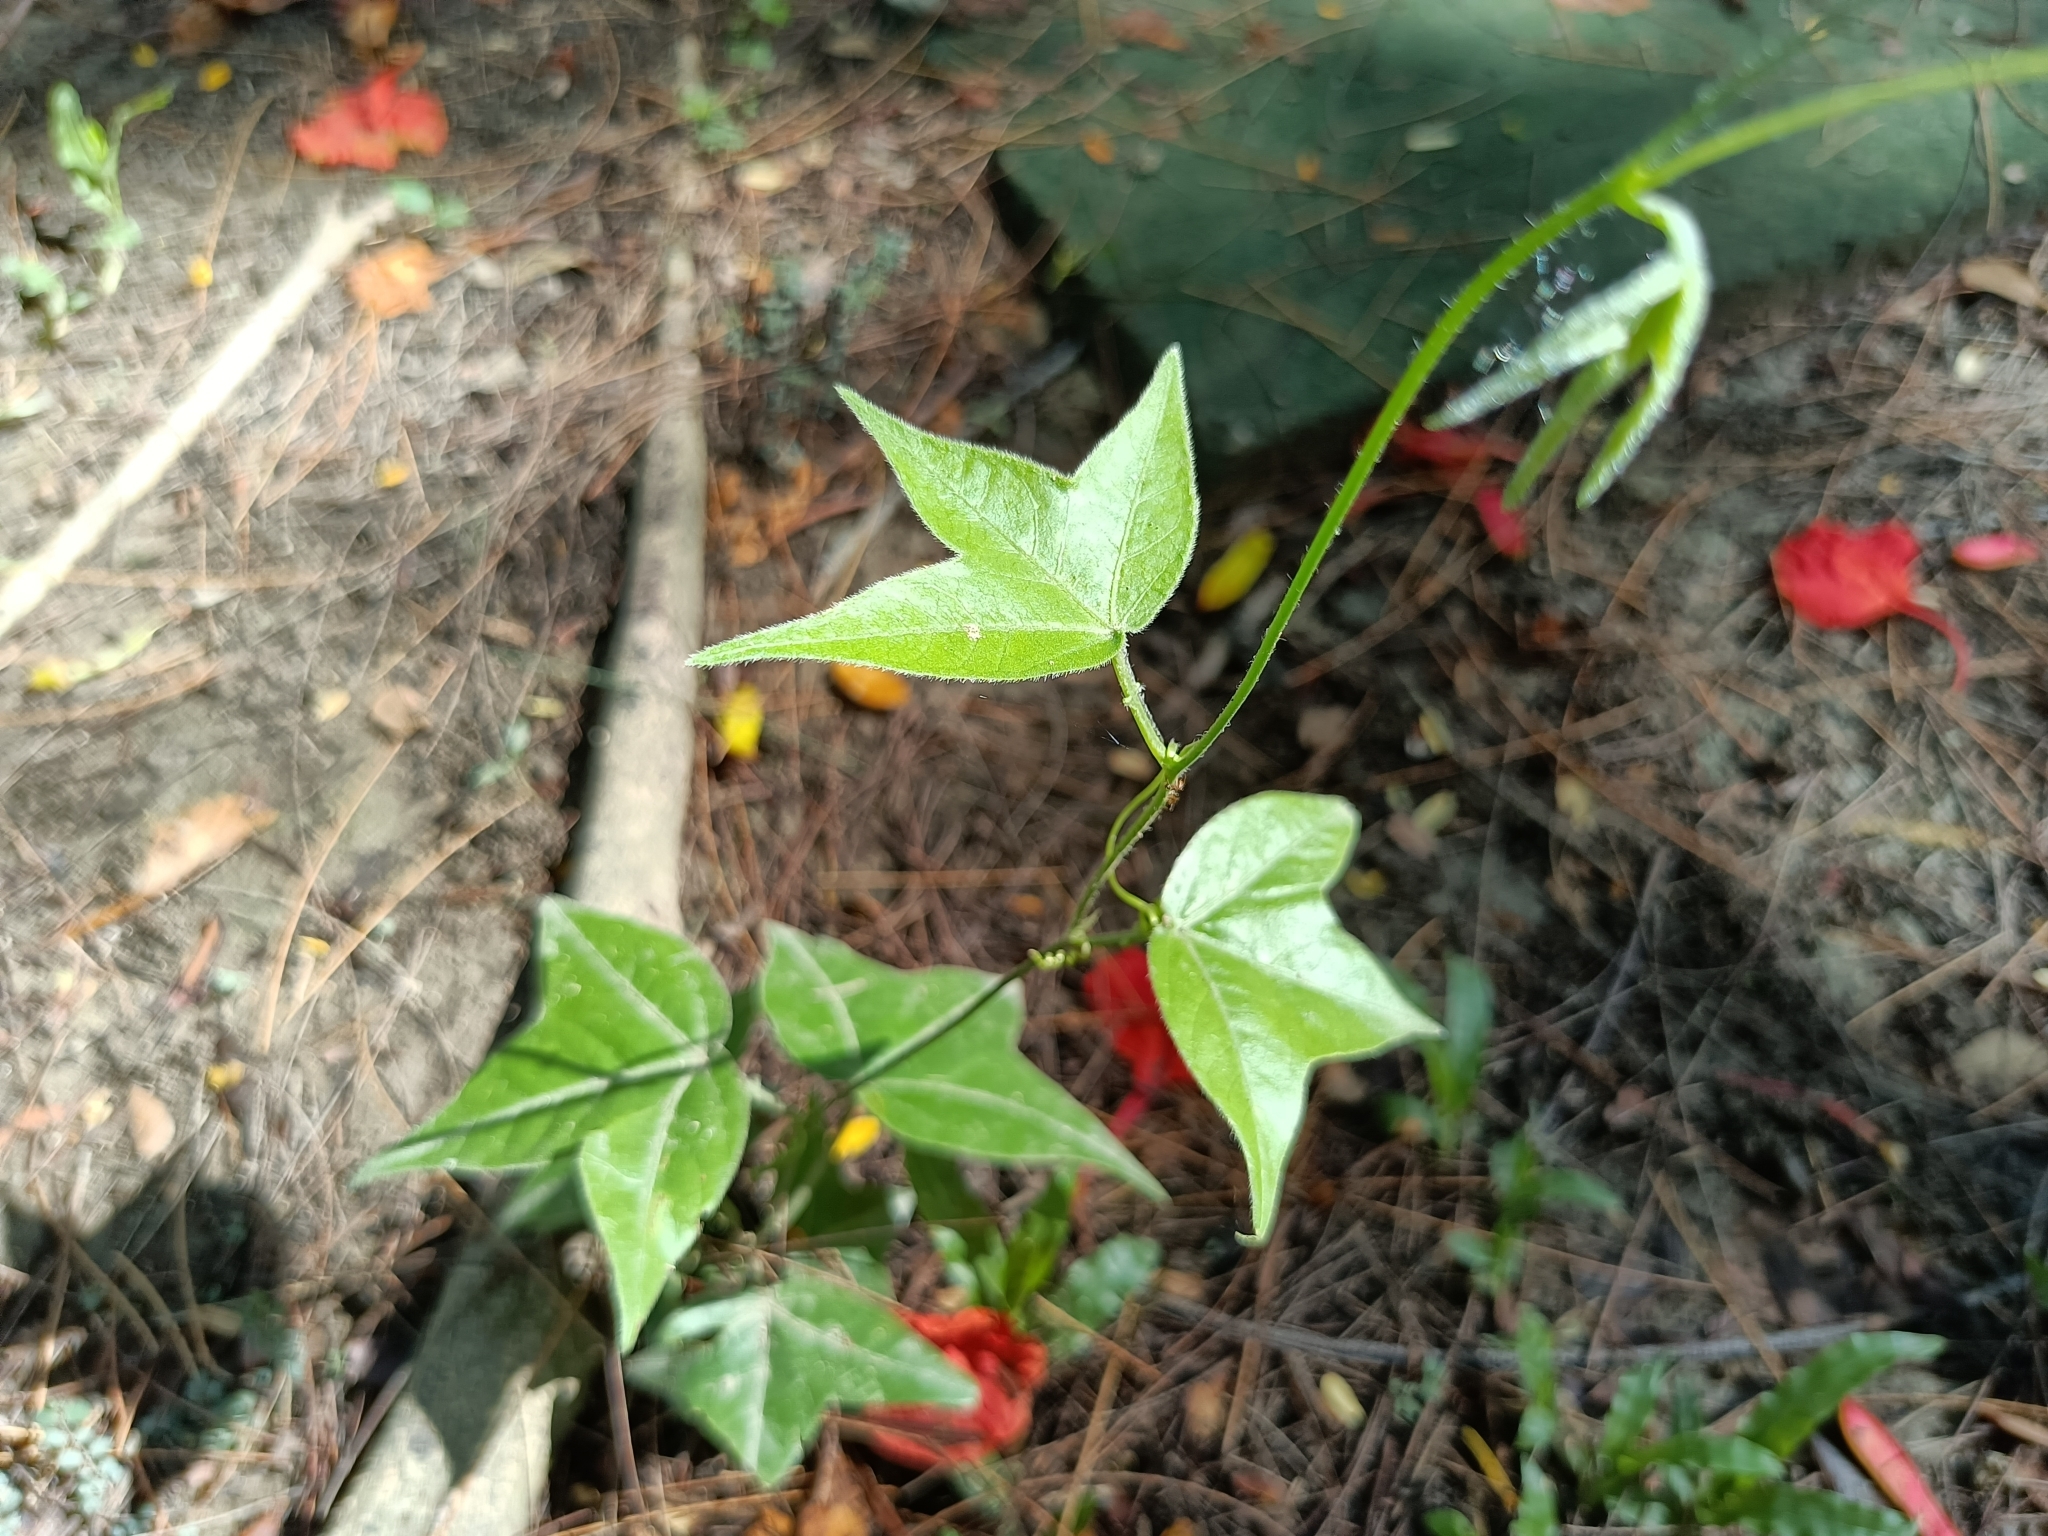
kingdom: Plantae
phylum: Tracheophyta
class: Magnoliopsida
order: Malpighiales
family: Passifloraceae
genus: Passiflora
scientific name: Passiflora suberosa
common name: Wild passionfruit
